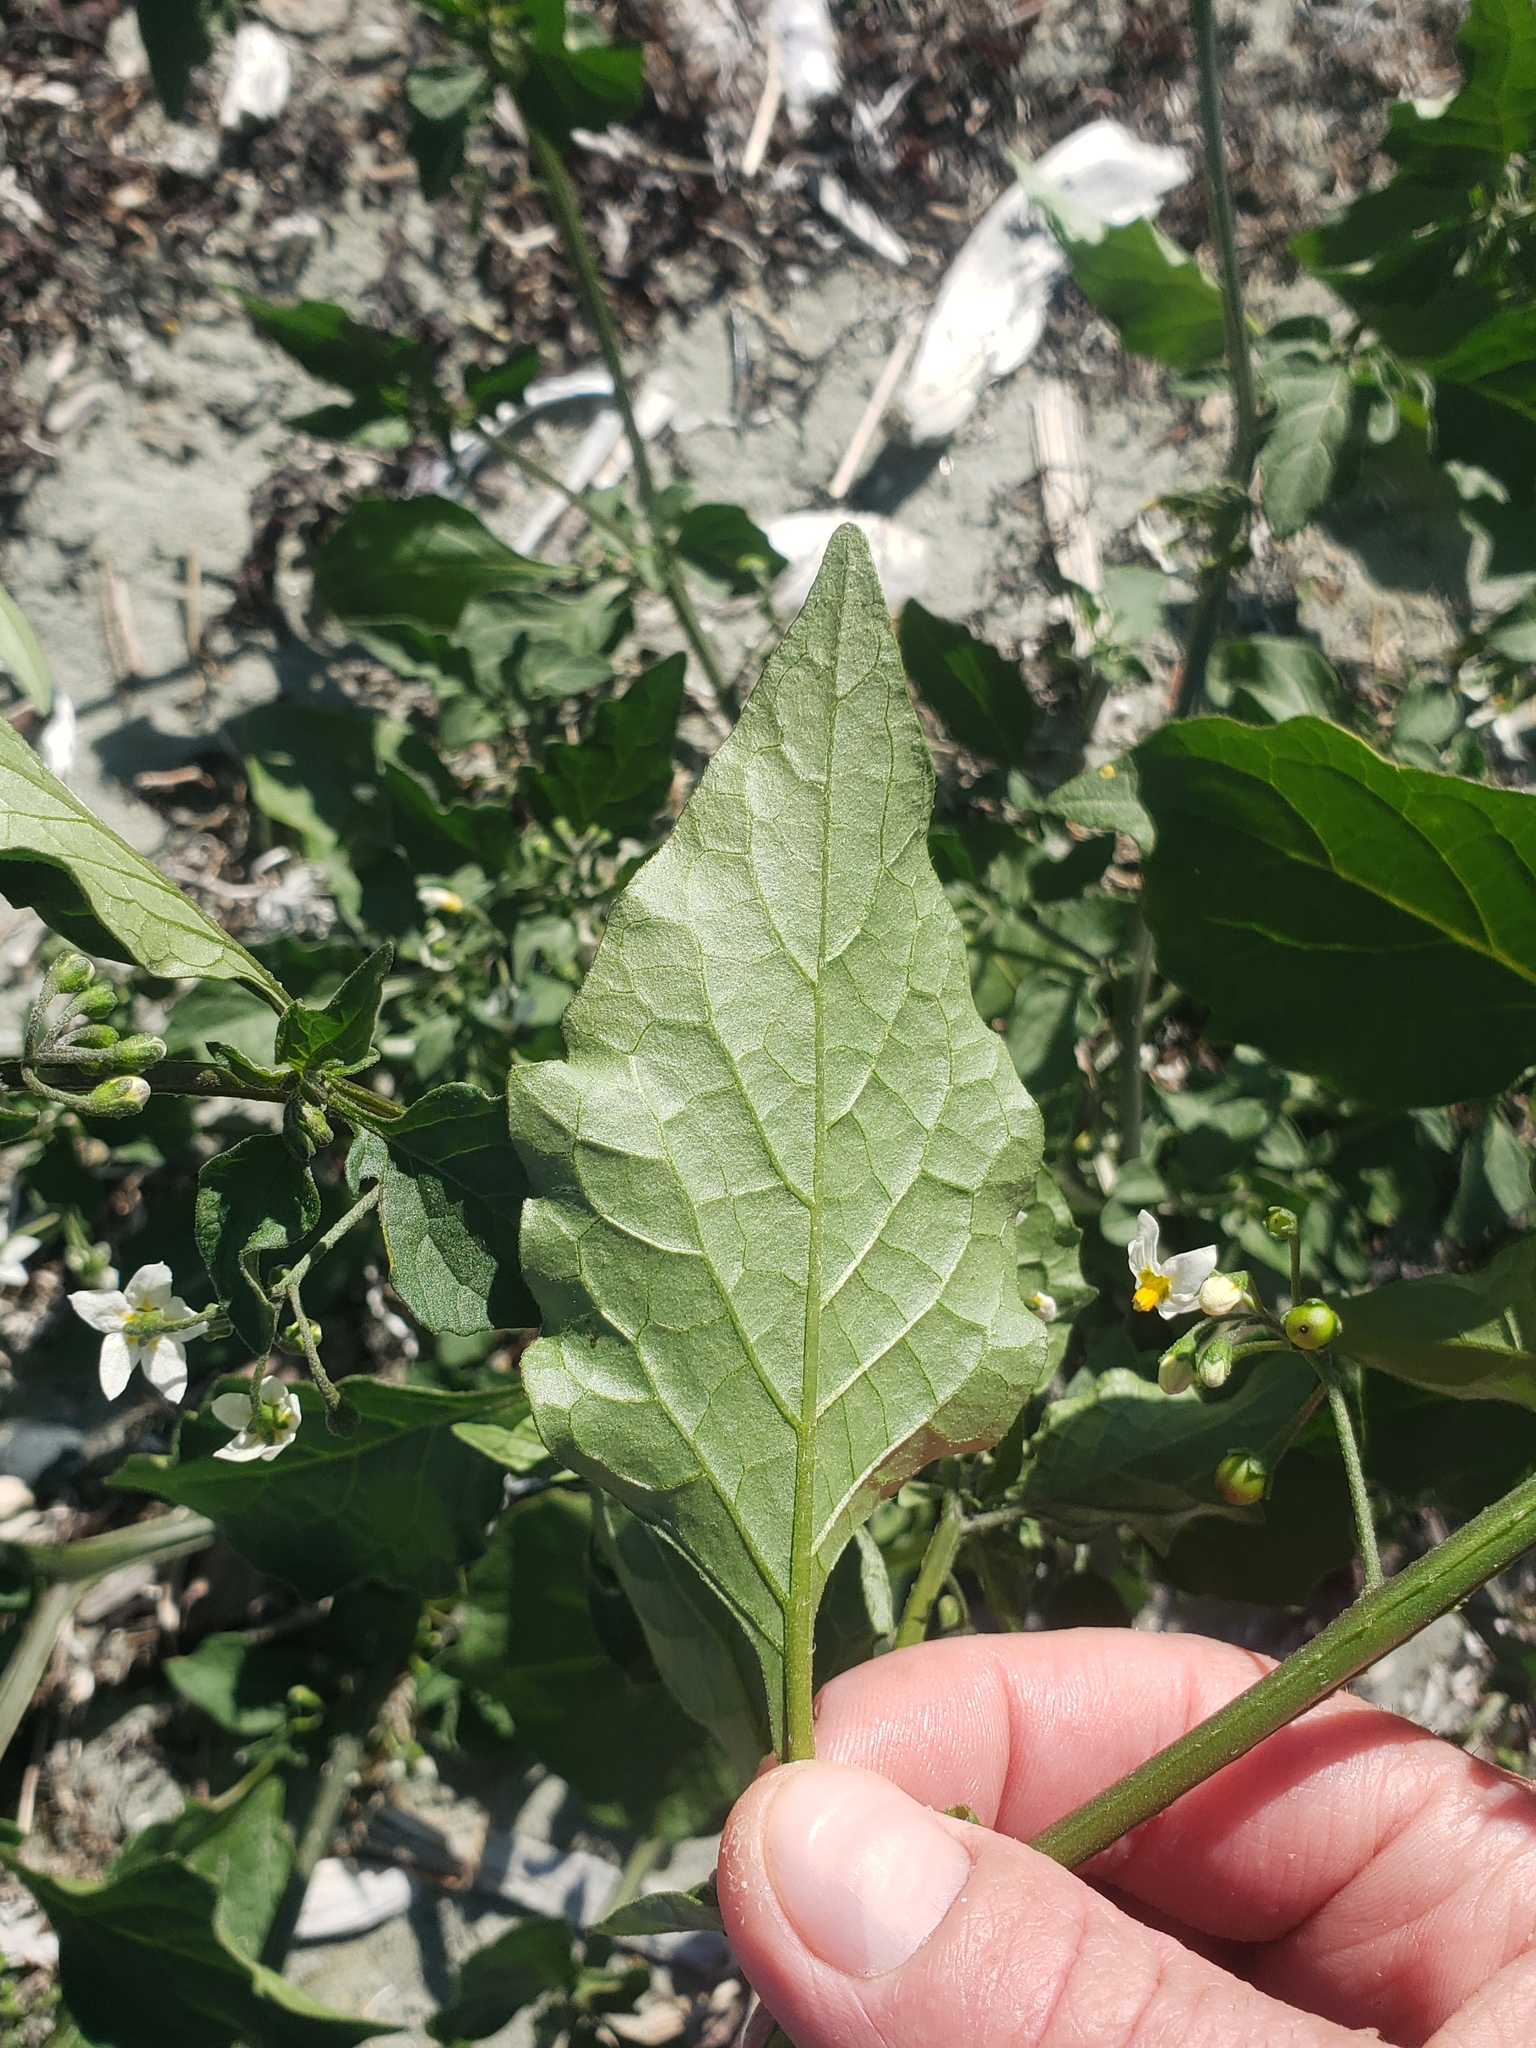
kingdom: Plantae
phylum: Tracheophyta
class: Magnoliopsida
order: Solanales
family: Solanaceae
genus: Solanum
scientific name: Solanum nigrum
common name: Black nightshade
